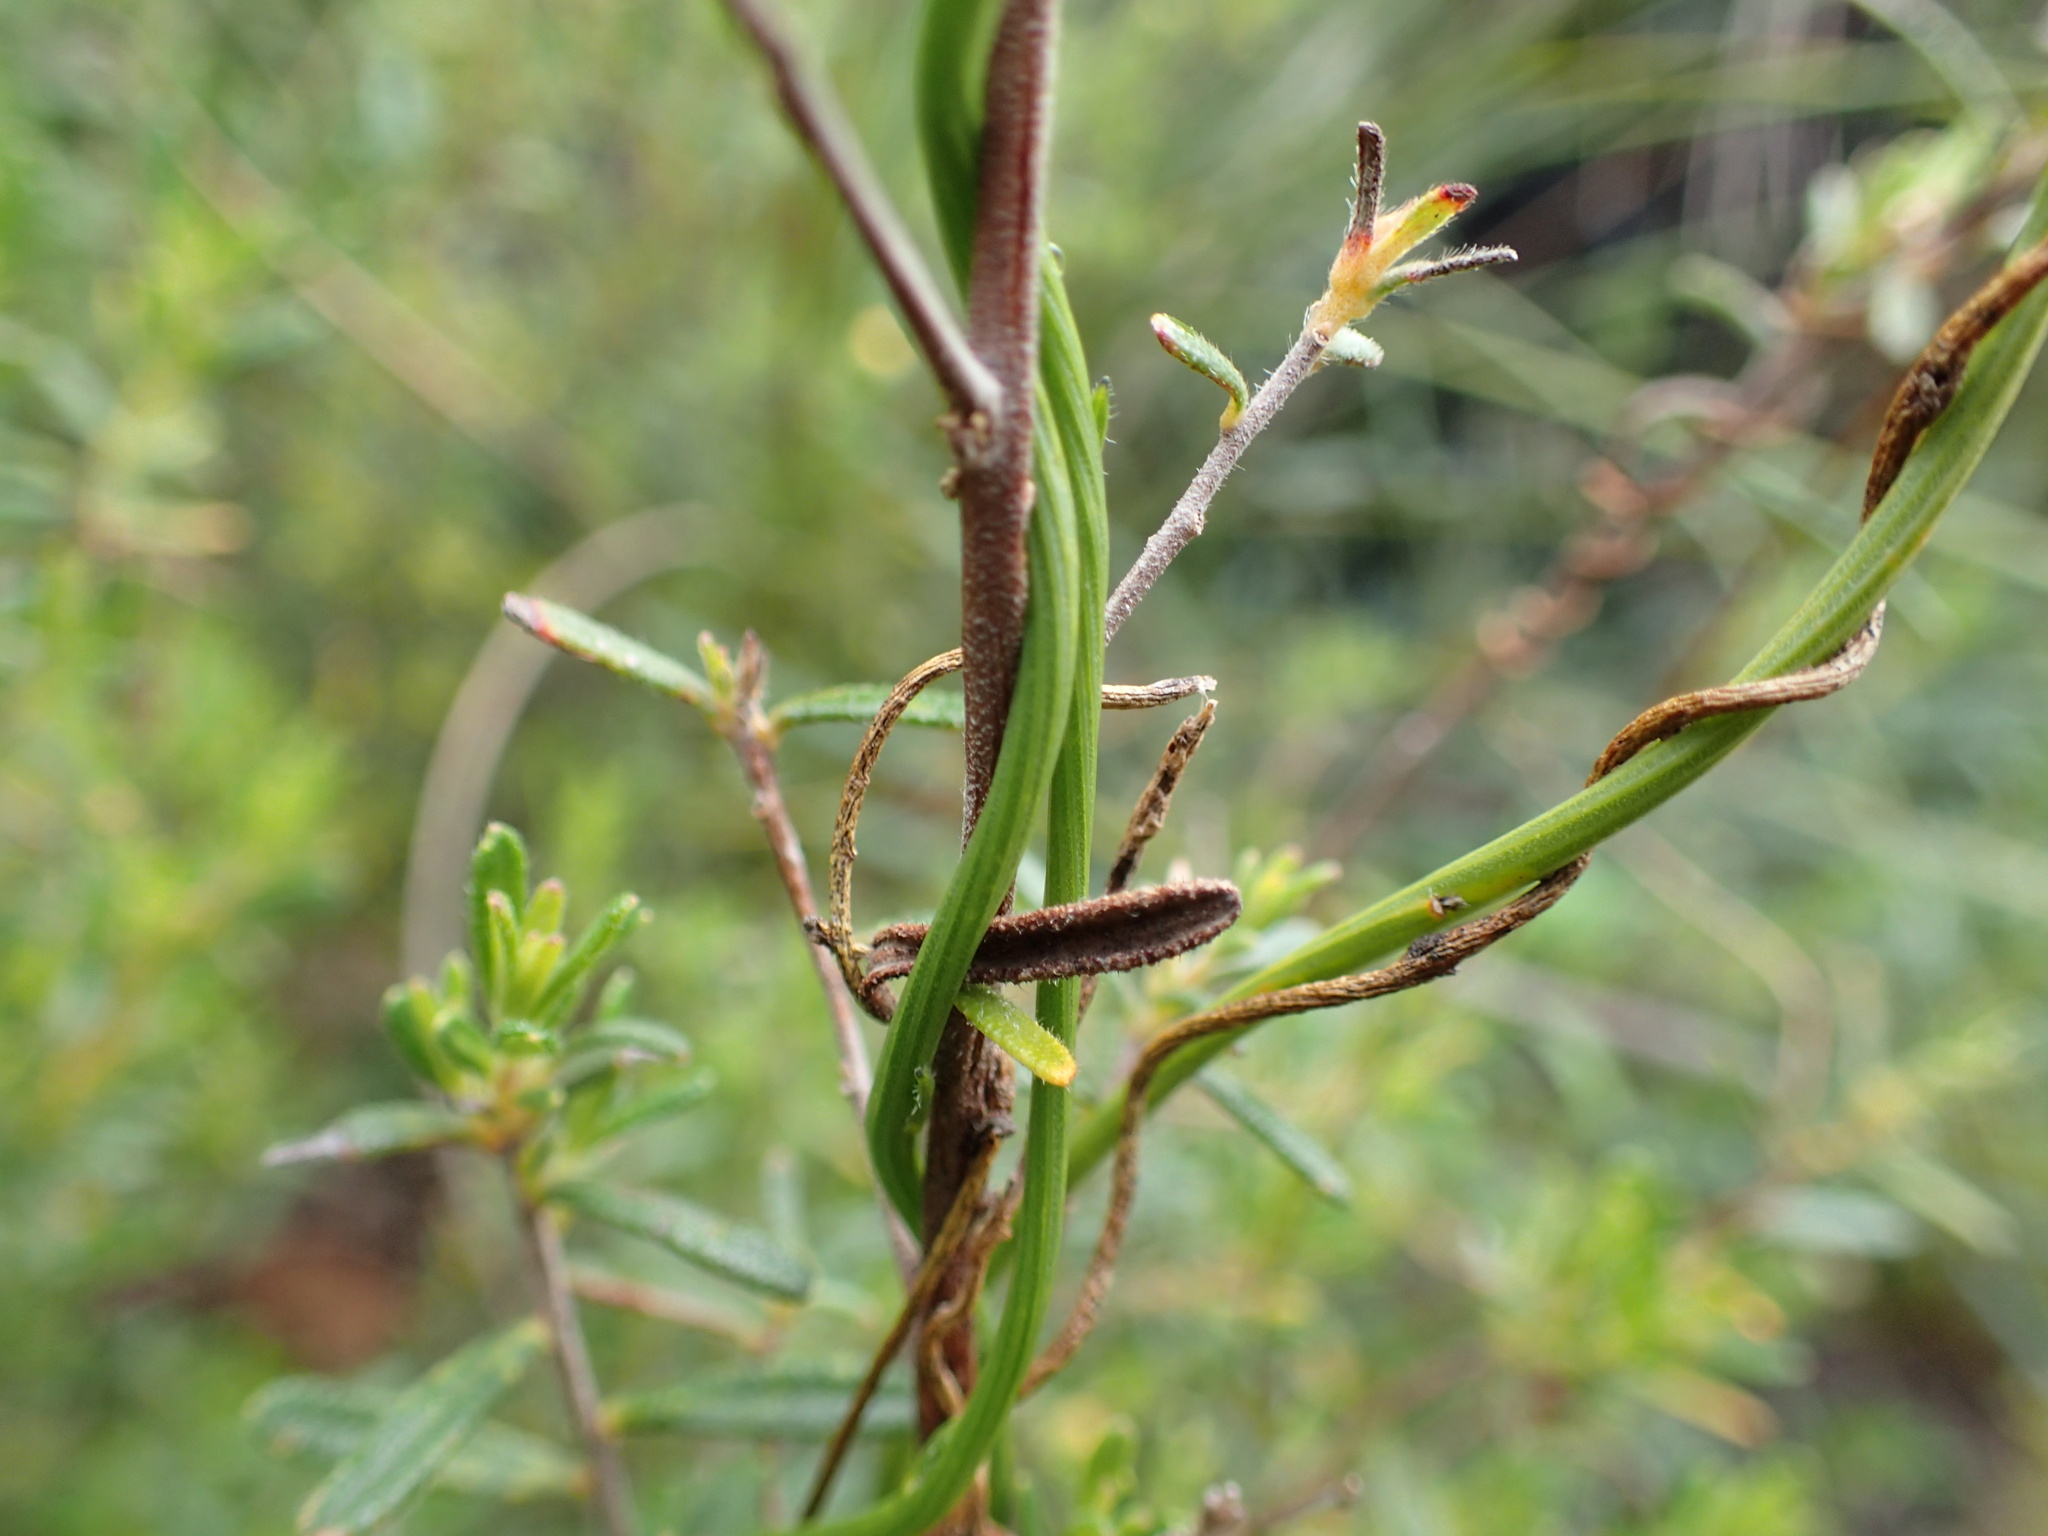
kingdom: Plantae
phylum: Tracheophyta
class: Magnoliopsida
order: Fabales
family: Polygalaceae
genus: Comesperma
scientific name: Comesperma volubile
